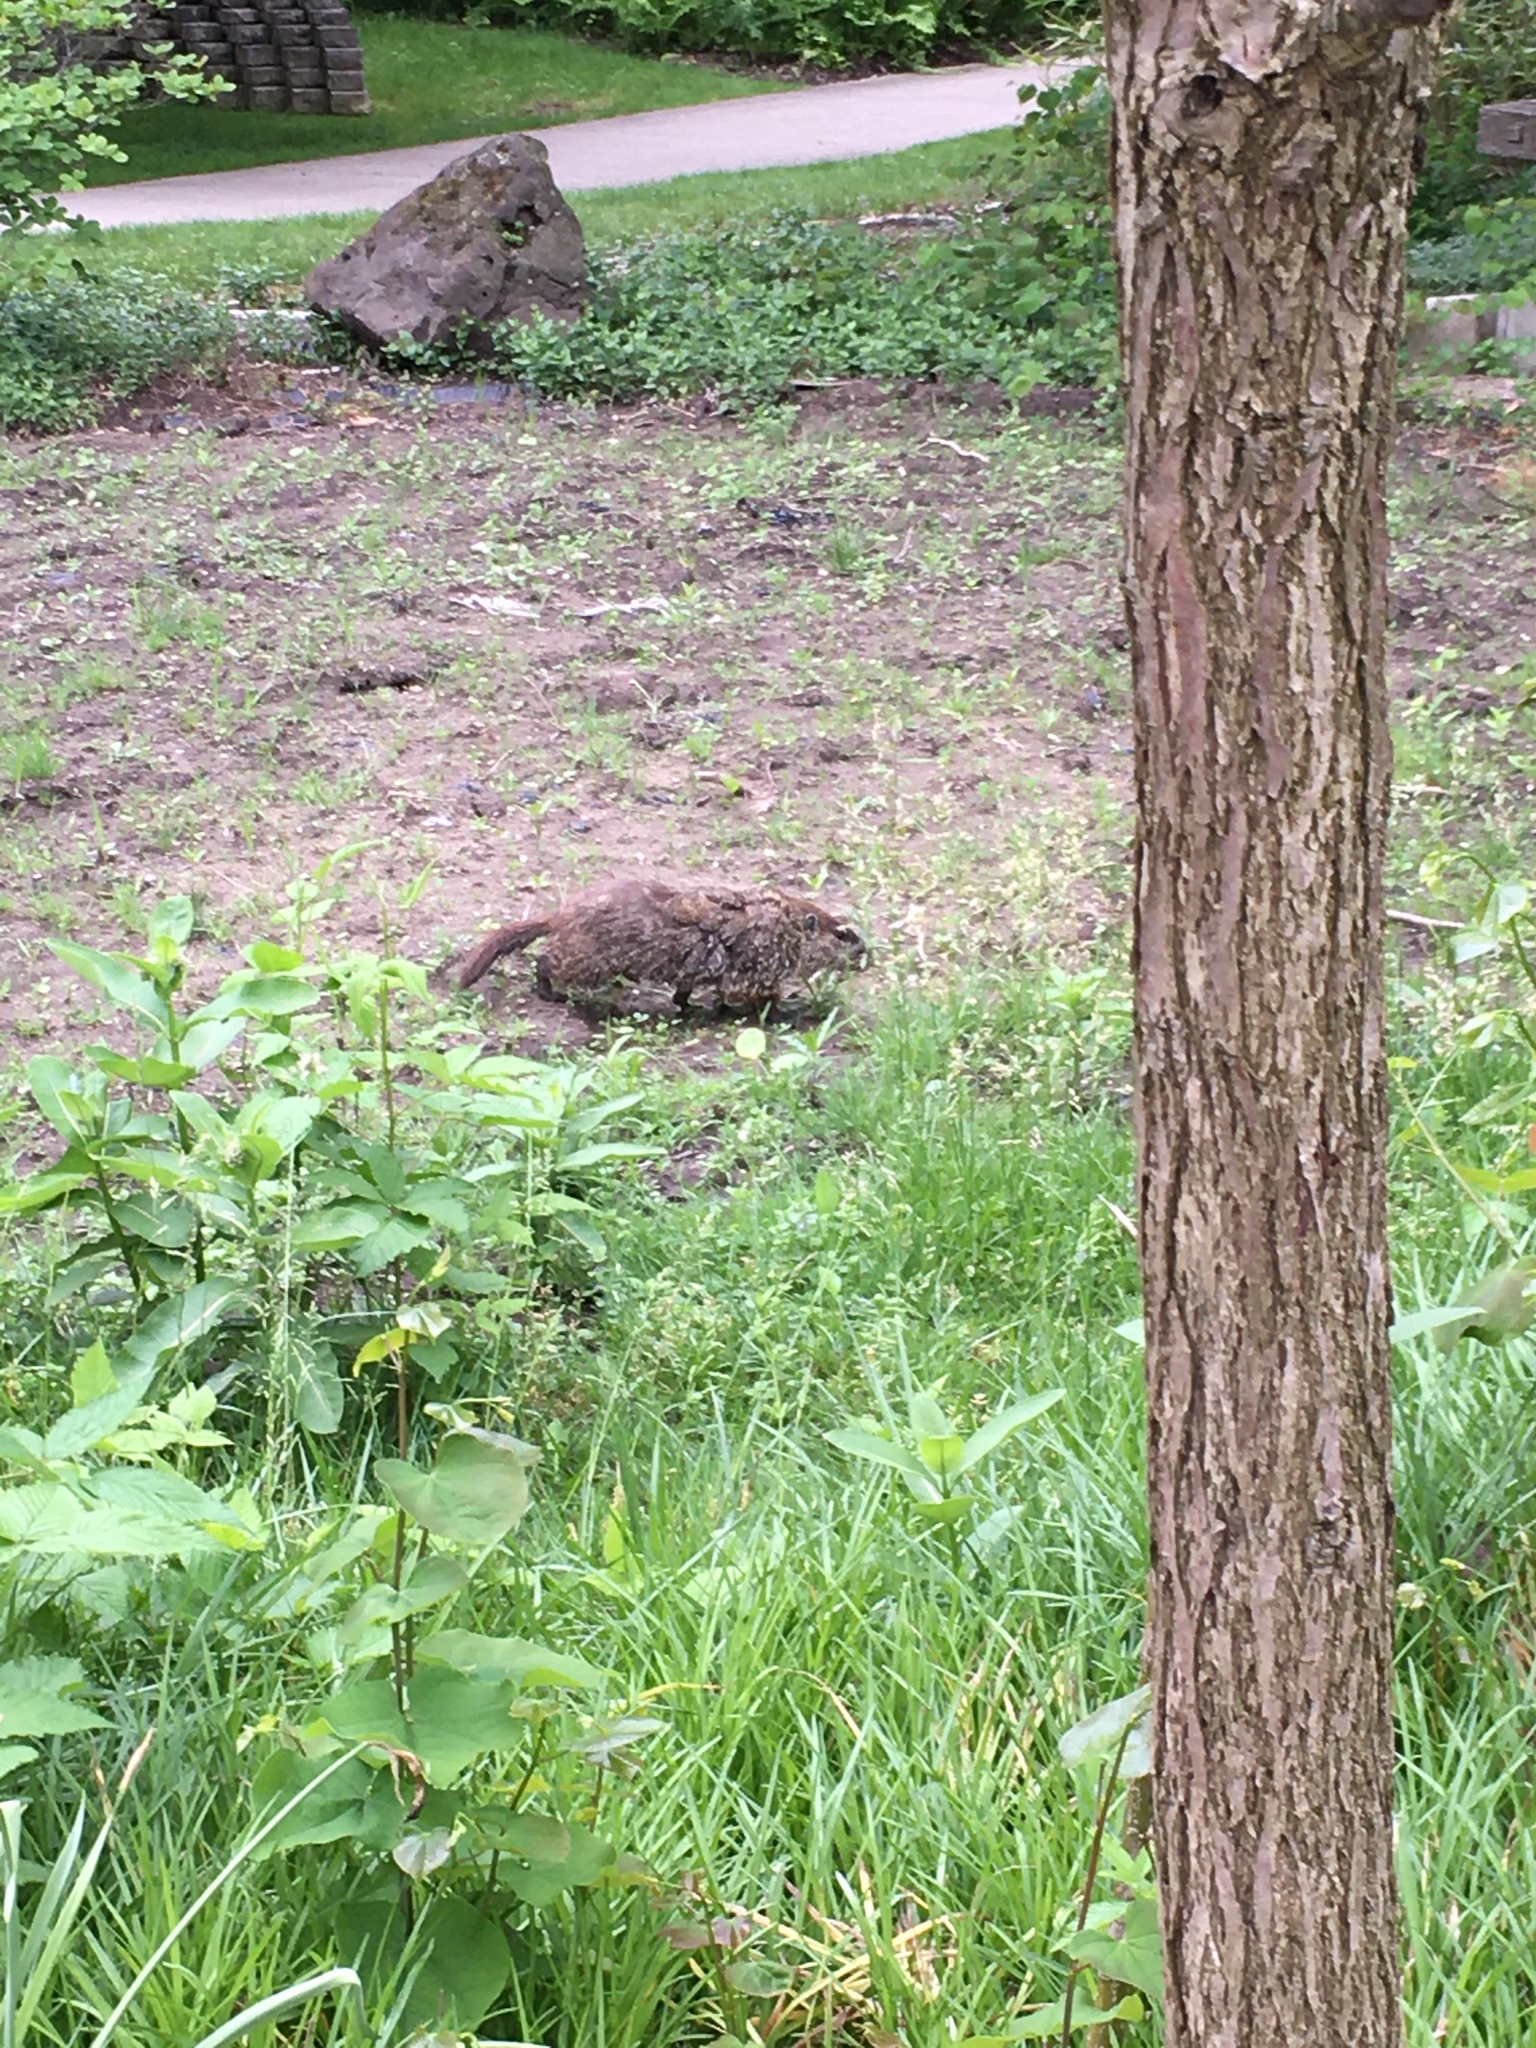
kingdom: Animalia
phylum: Chordata
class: Mammalia
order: Rodentia
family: Sciuridae
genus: Marmota
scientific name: Marmota monax
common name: Groundhog
